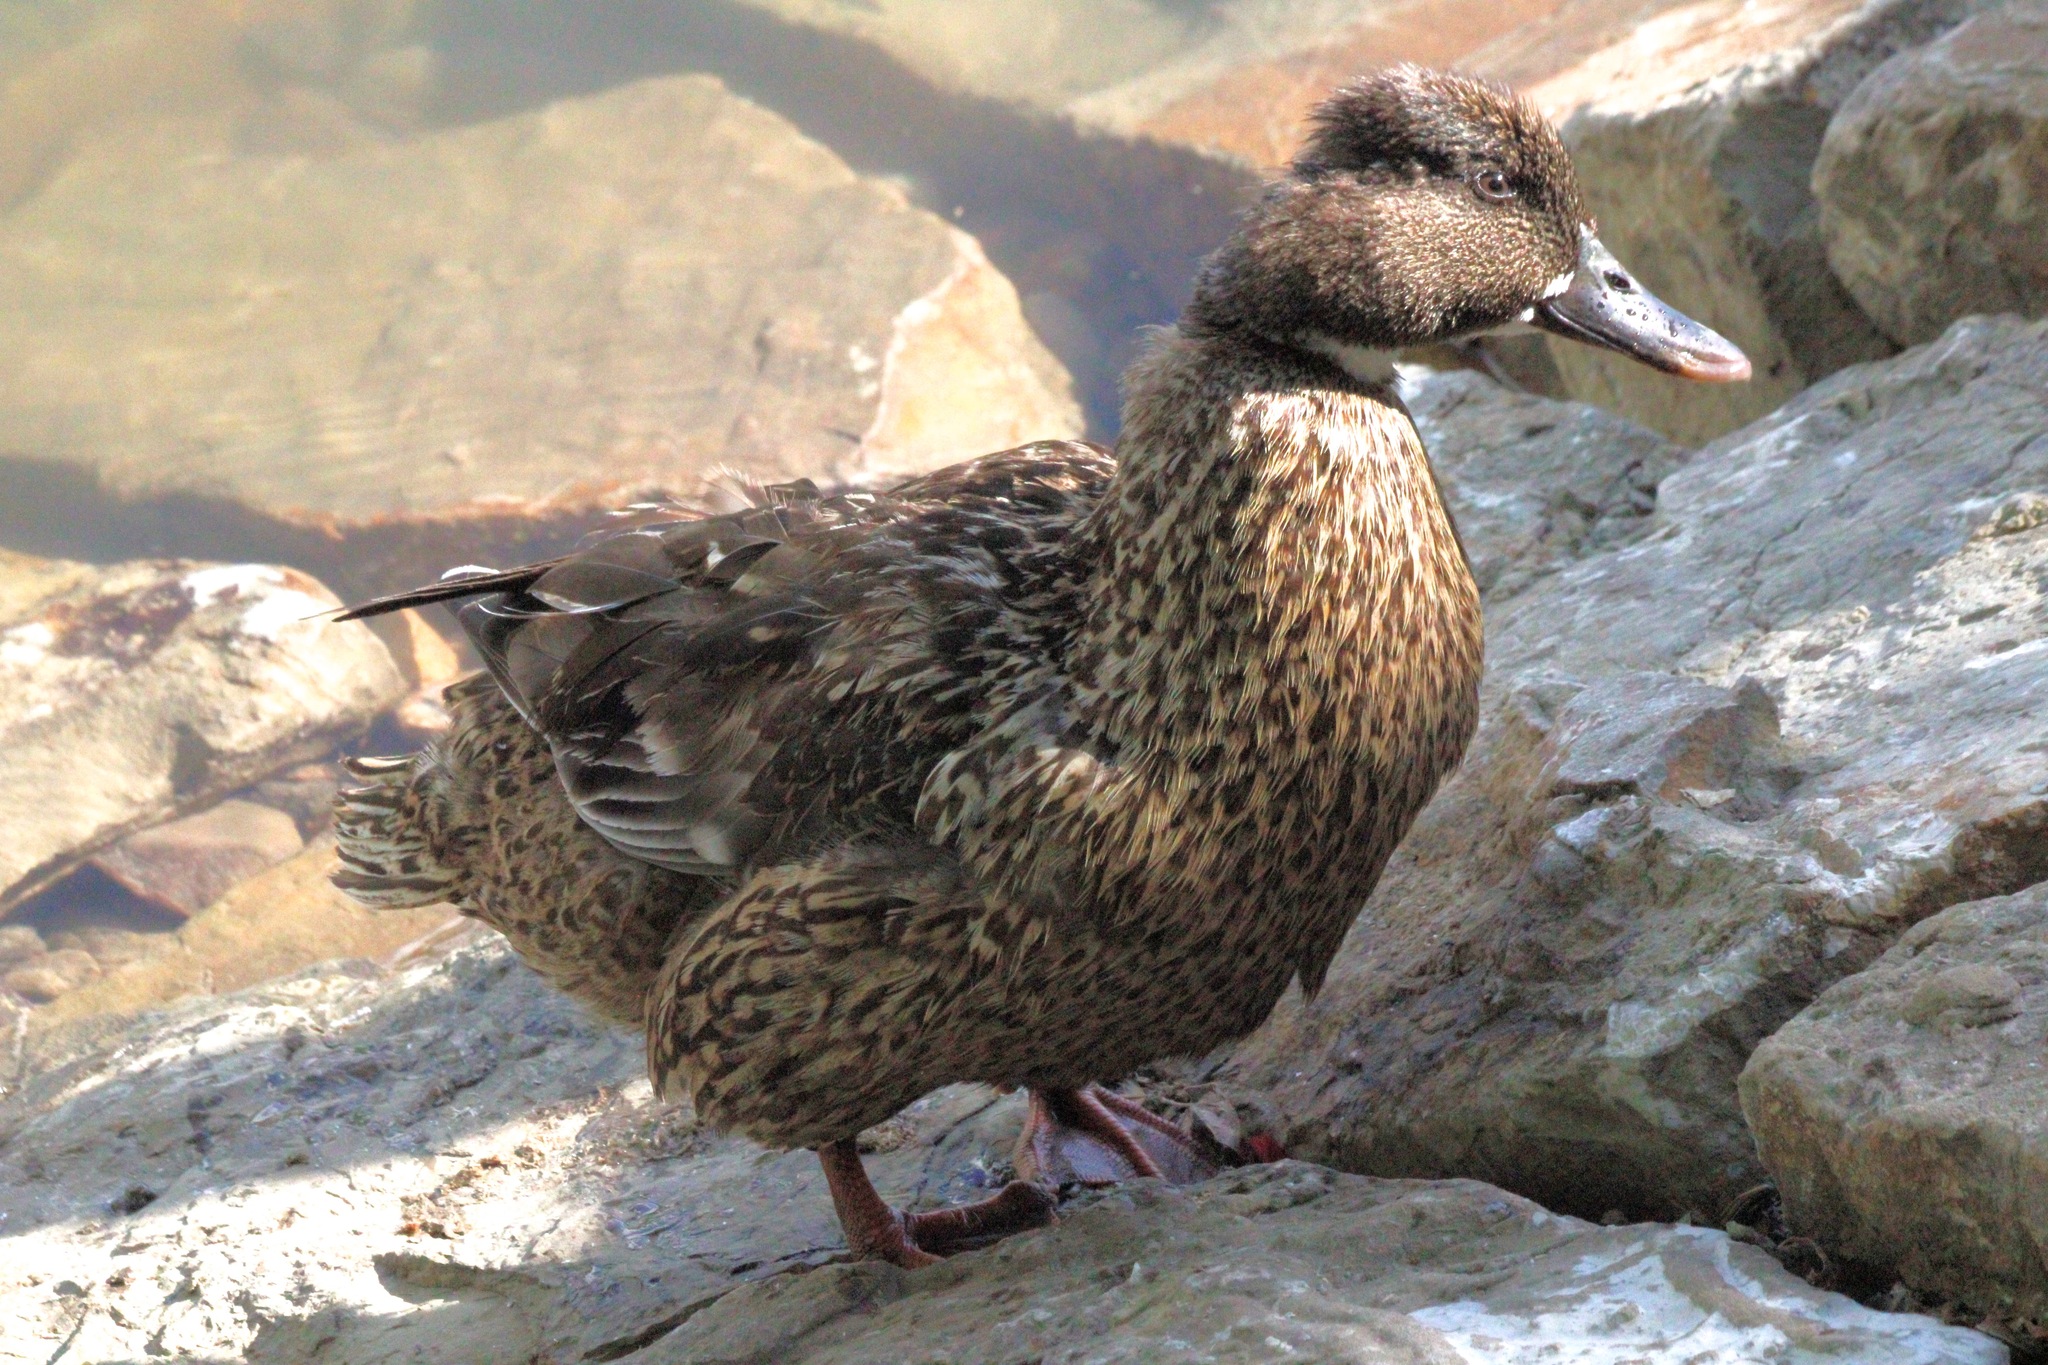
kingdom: Animalia
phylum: Chordata
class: Aves
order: Anseriformes
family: Anatidae
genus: Anas
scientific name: Anas platyrhynchos
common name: Mallard
